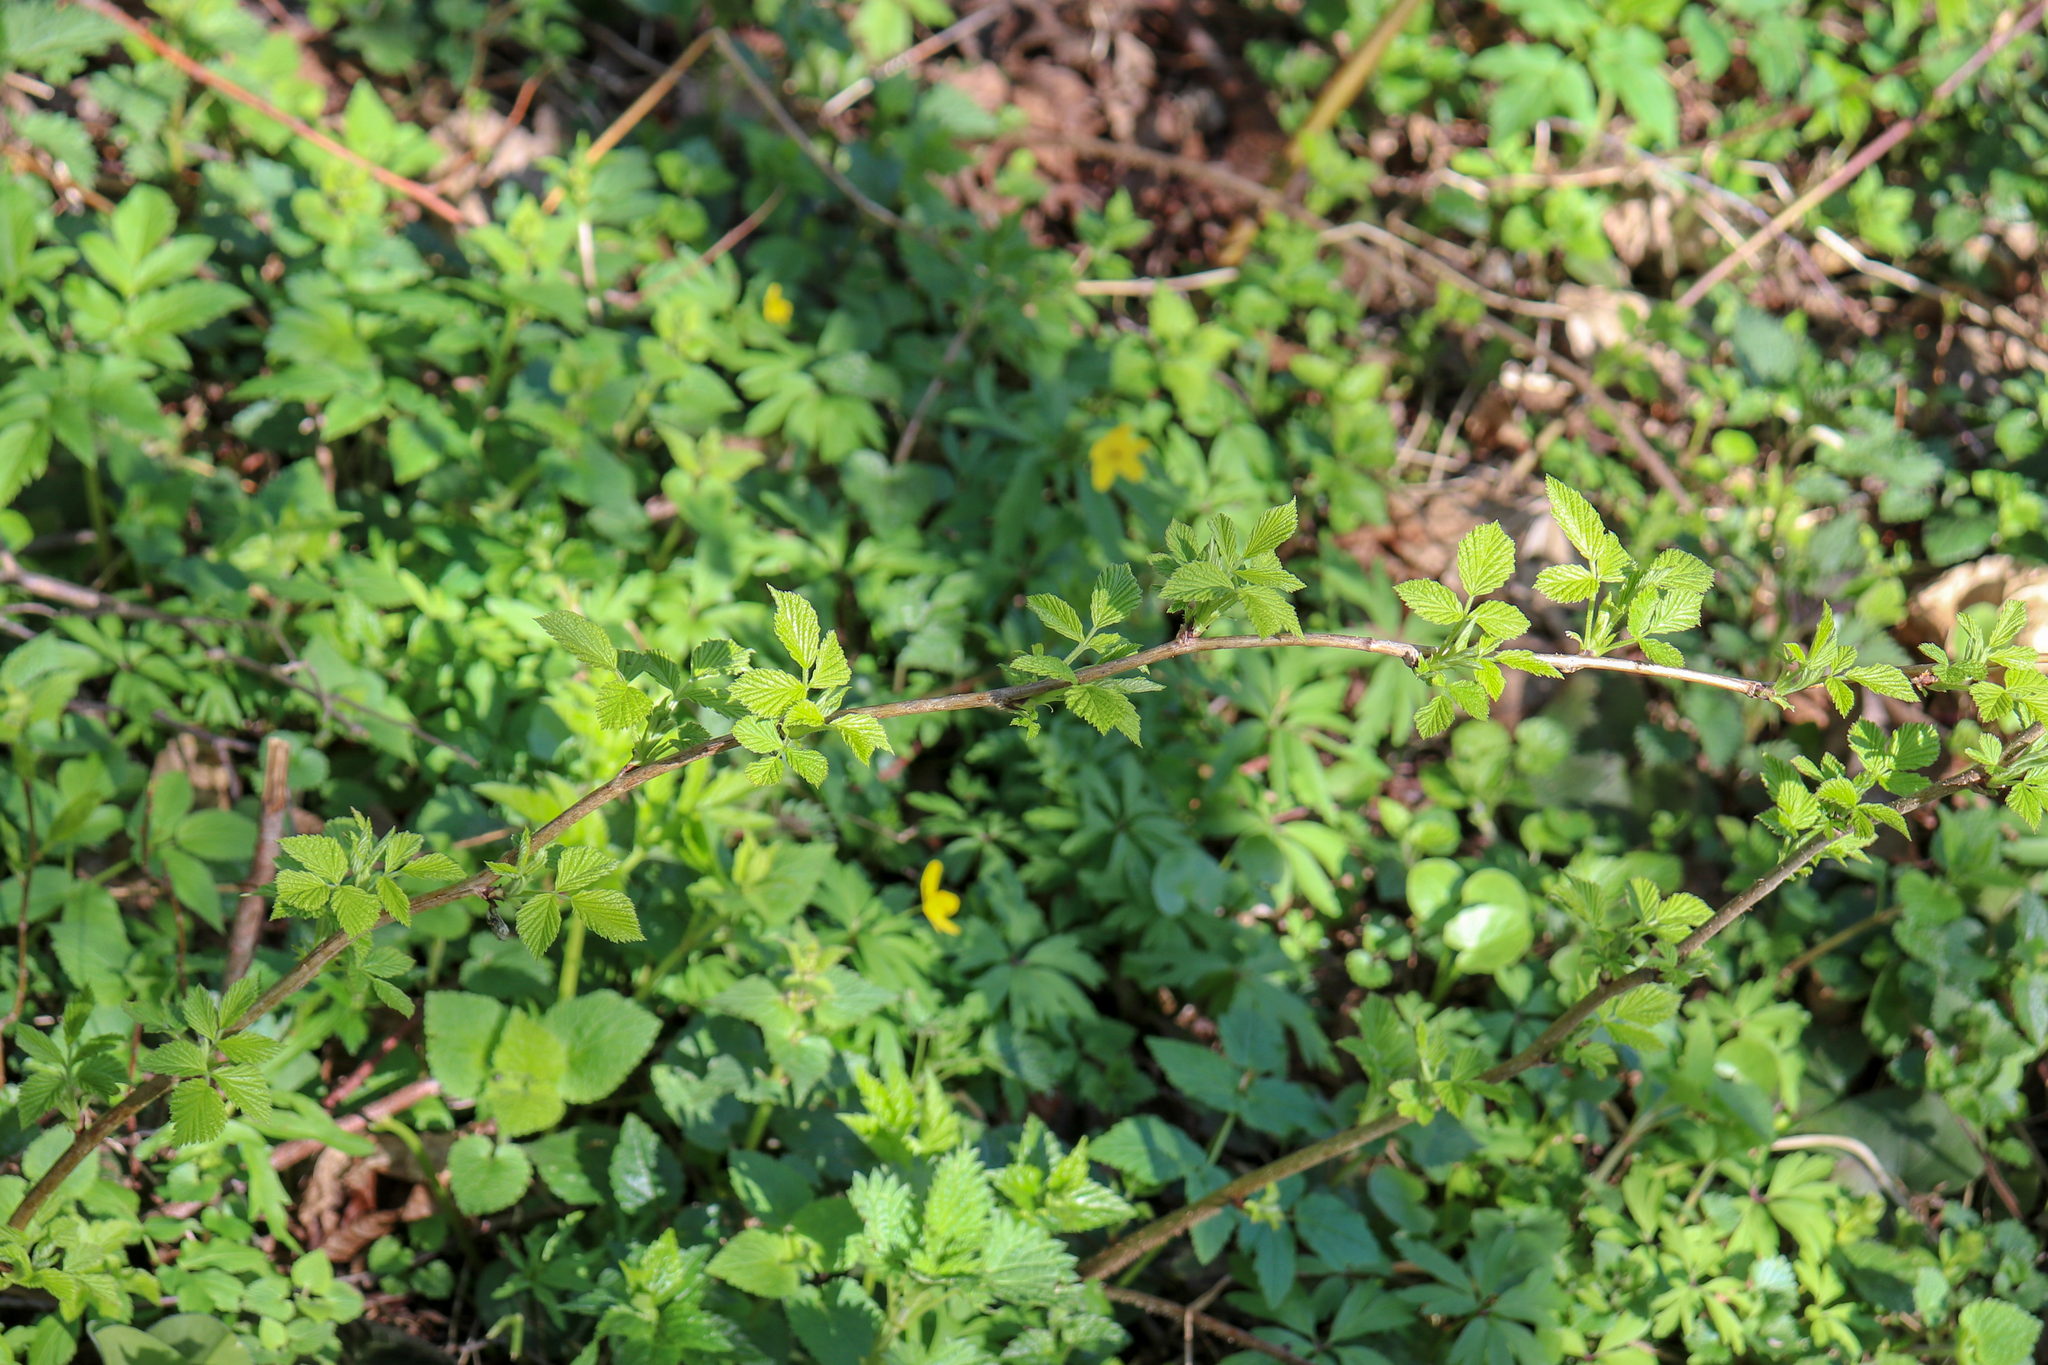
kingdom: Plantae
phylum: Tracheophyta
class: Magnoliopsida
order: Rosales
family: Rosaceae
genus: Rubus
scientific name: Rubus idaeus
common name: Raspberry
